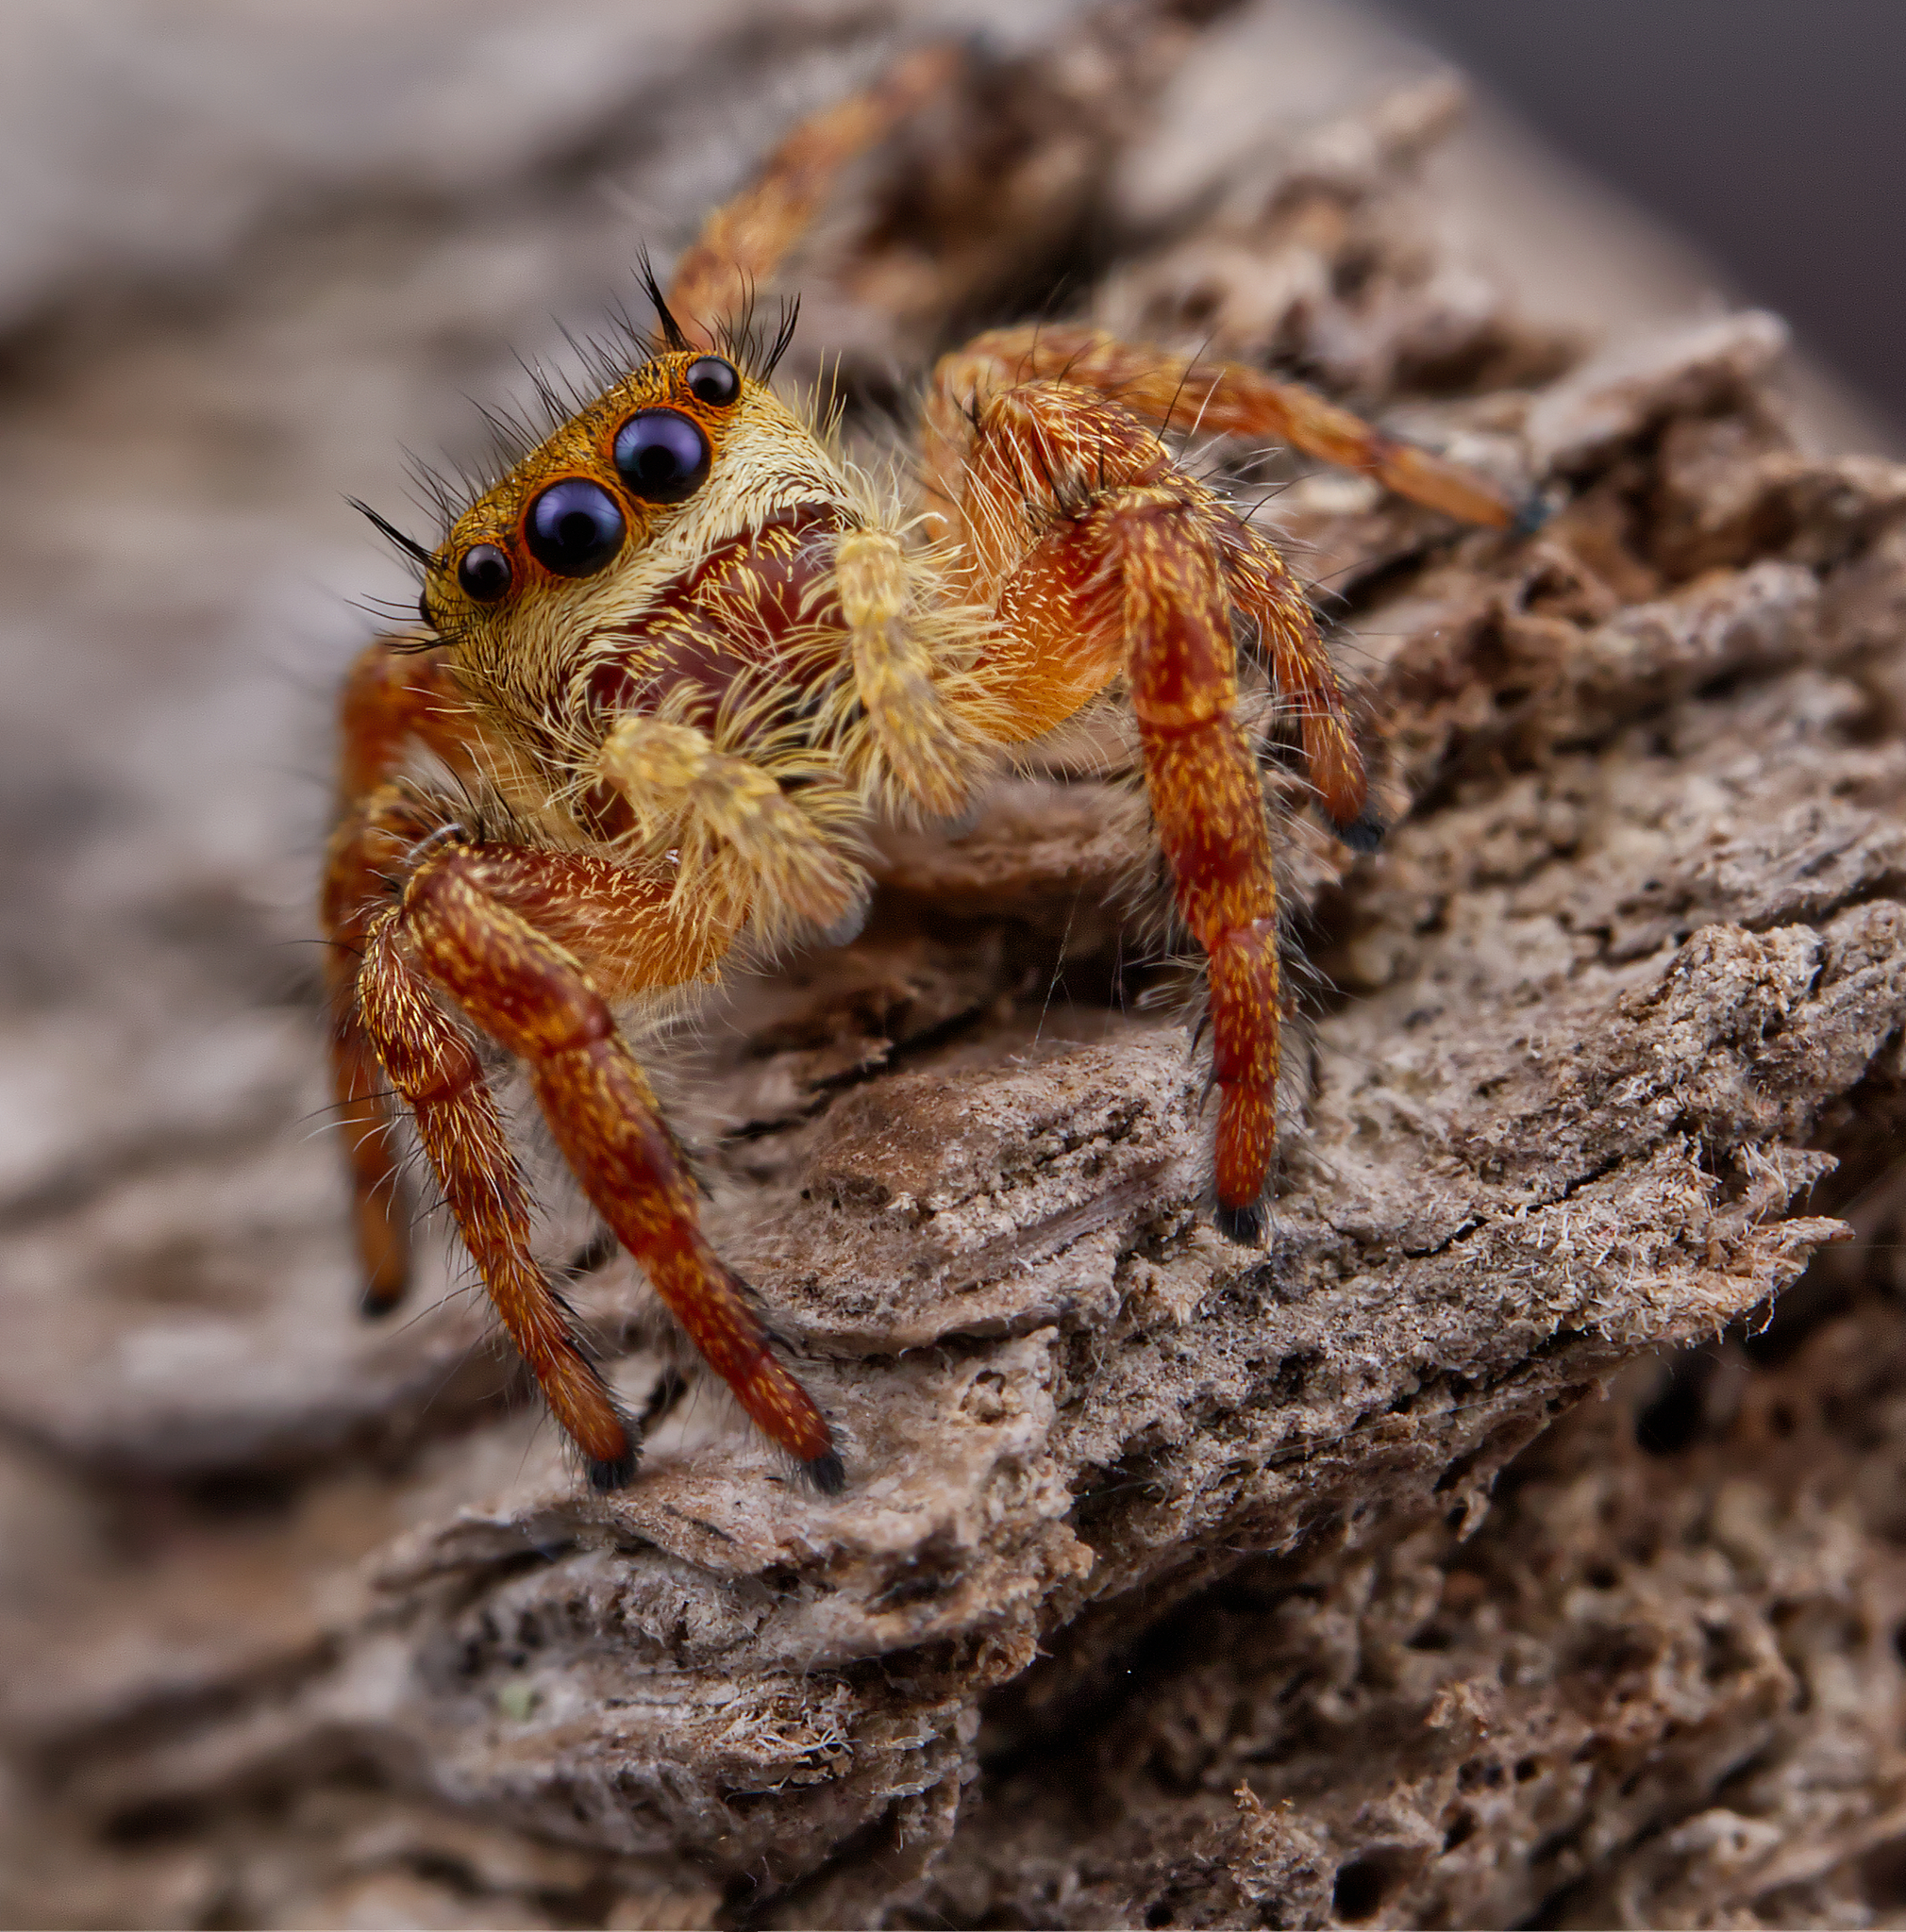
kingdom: Animalia
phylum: Arthropoda
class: Arachnida
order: Araneae
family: Salticidae
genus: Phidippus
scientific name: Phidippus princeps
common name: Grayish jumping spider
